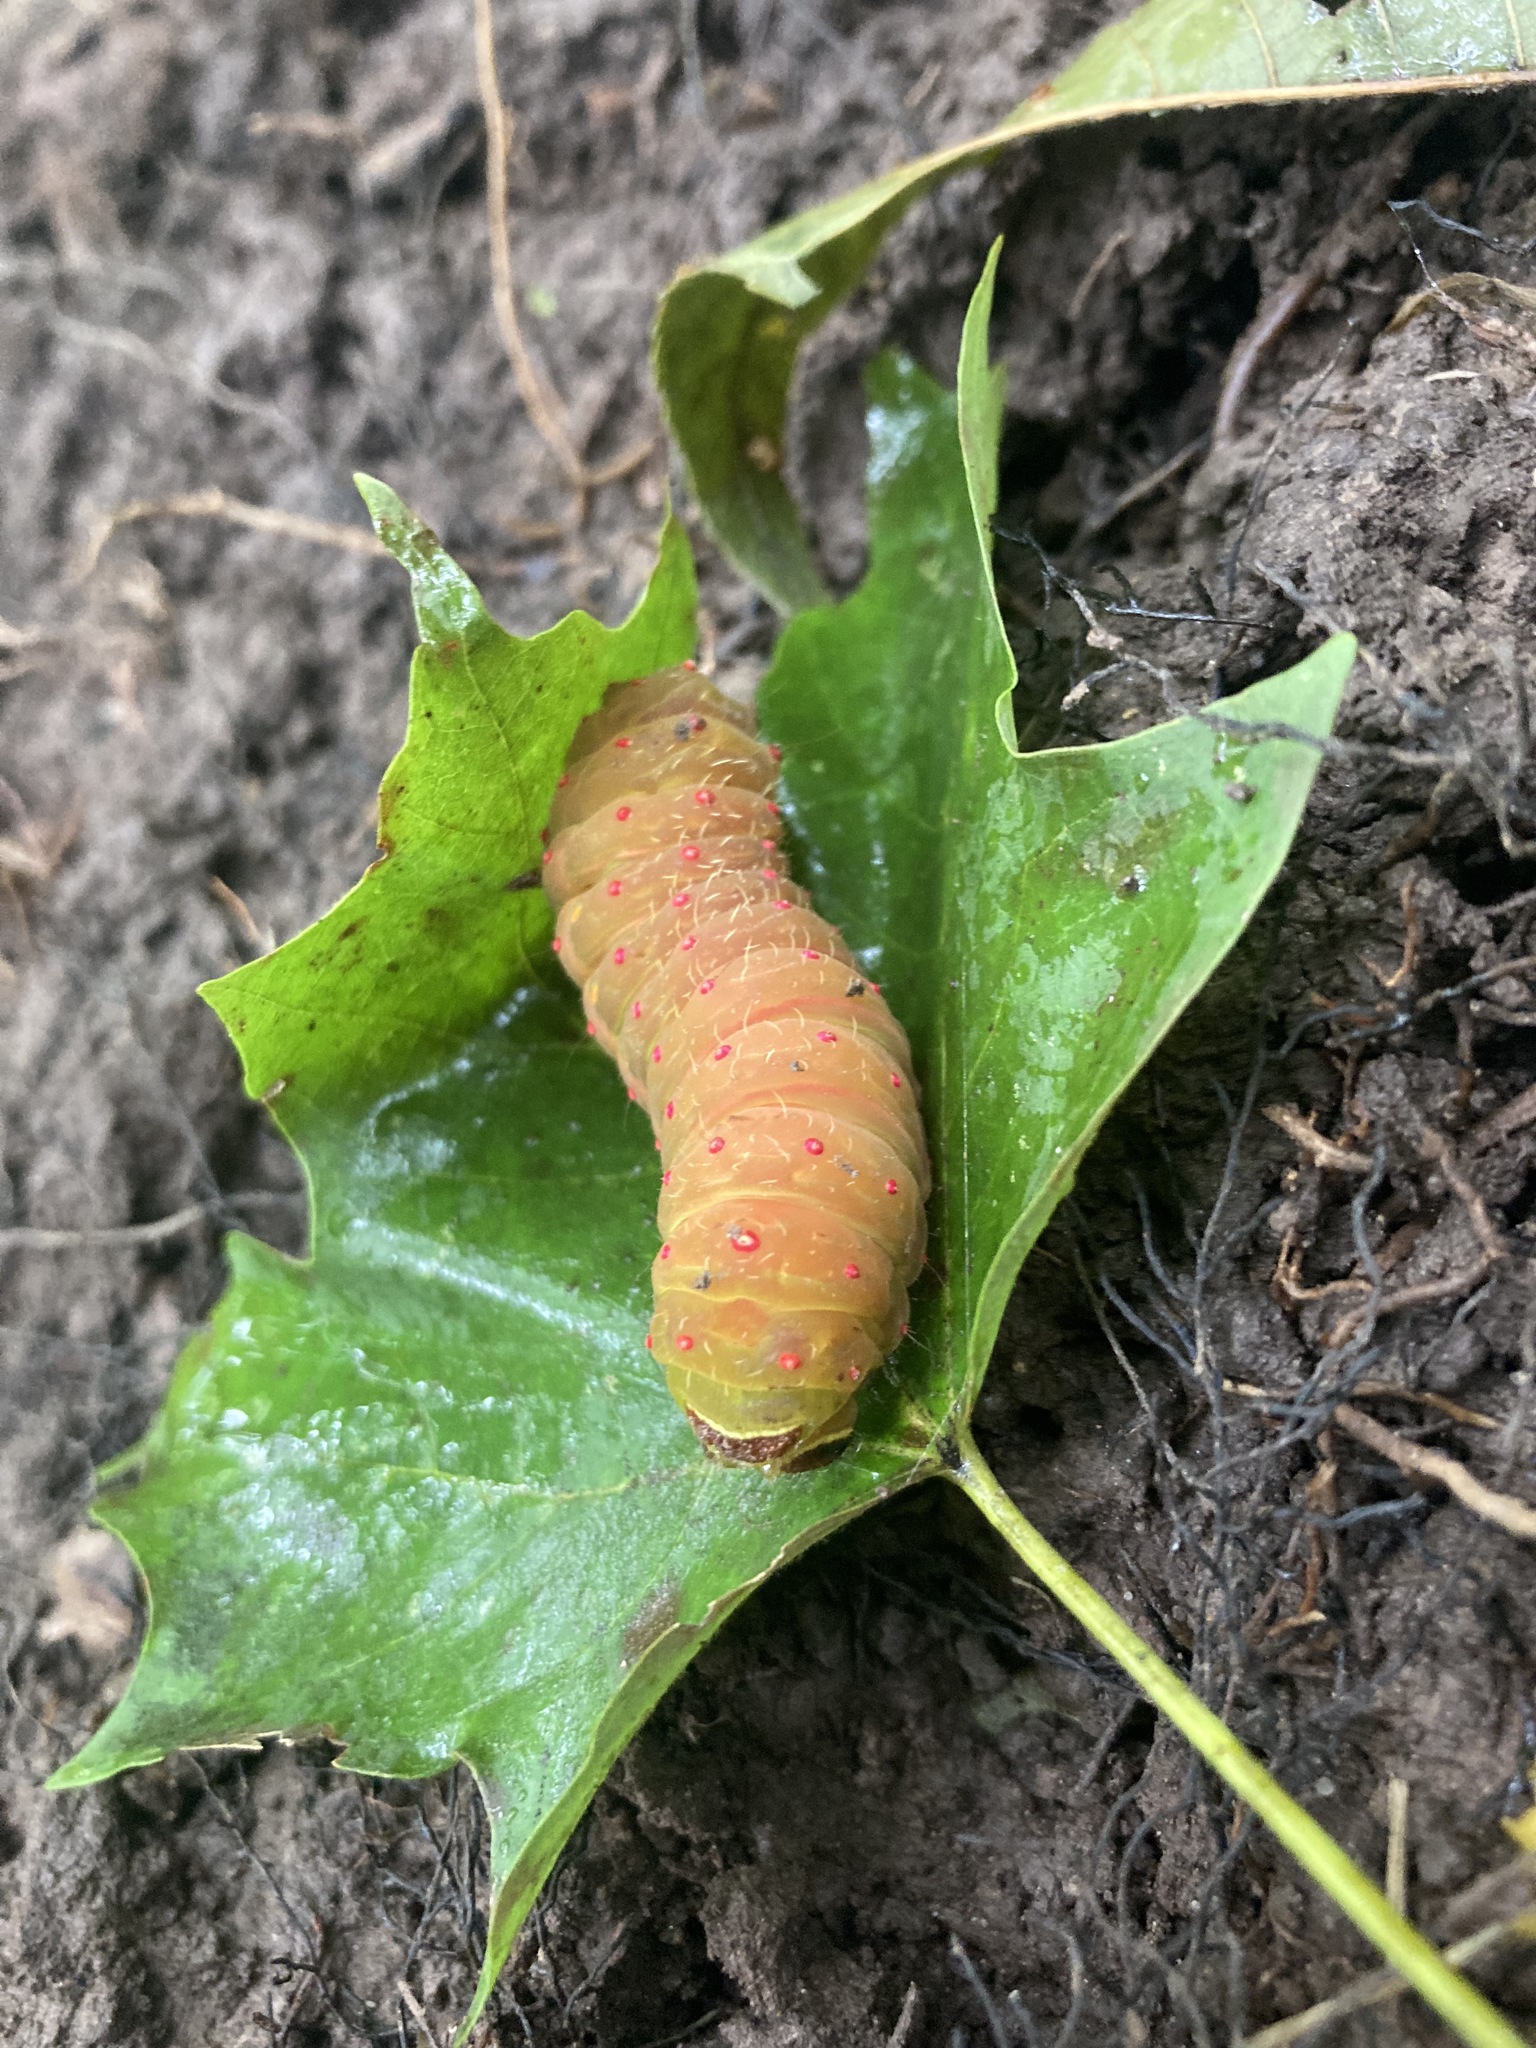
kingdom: Animalia
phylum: Arthropoda
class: Insecta
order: Lepidoptera
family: Saturniidae
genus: Actias
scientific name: Actias luna
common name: Luna moth
